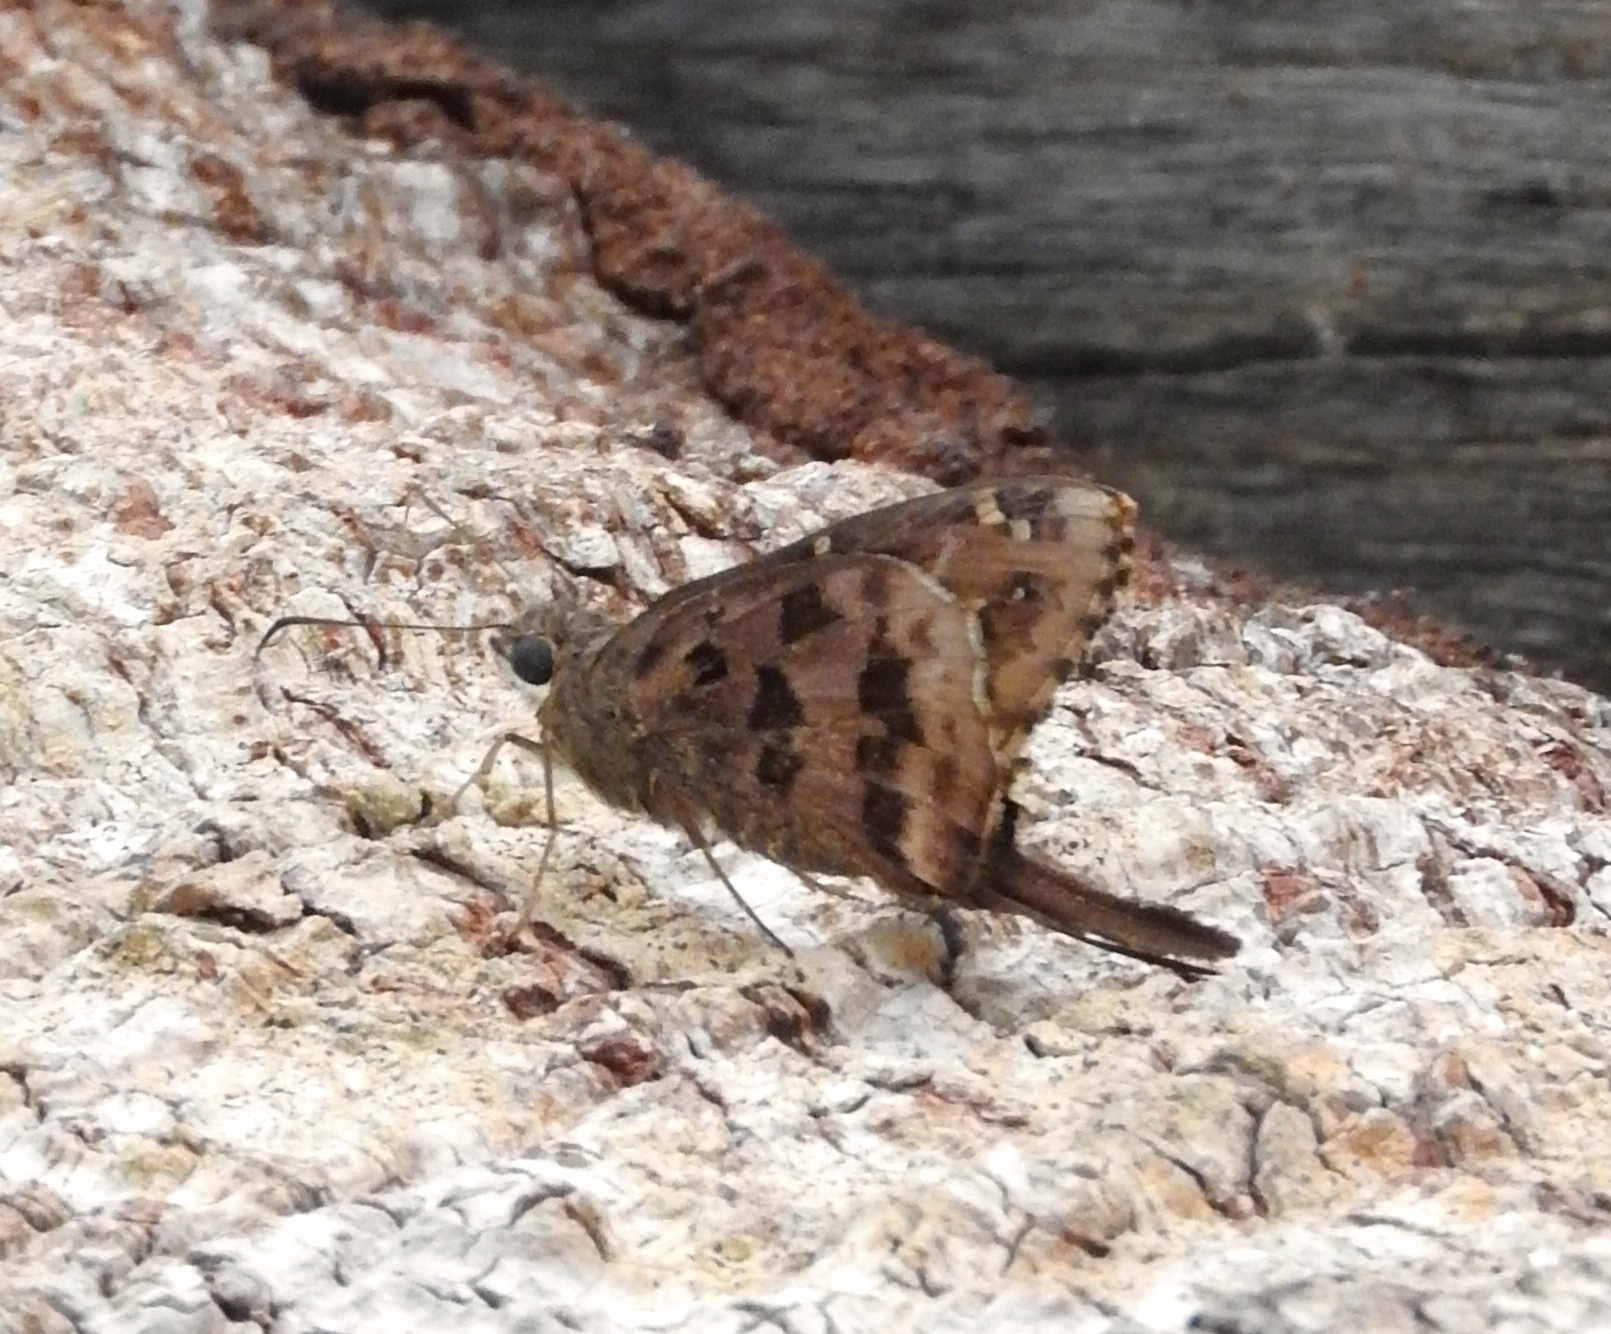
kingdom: Animalia
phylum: Arthropoda
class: Insecta
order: Lepidoptera
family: Hesperiidae
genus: Thorybes
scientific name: Thorybes
